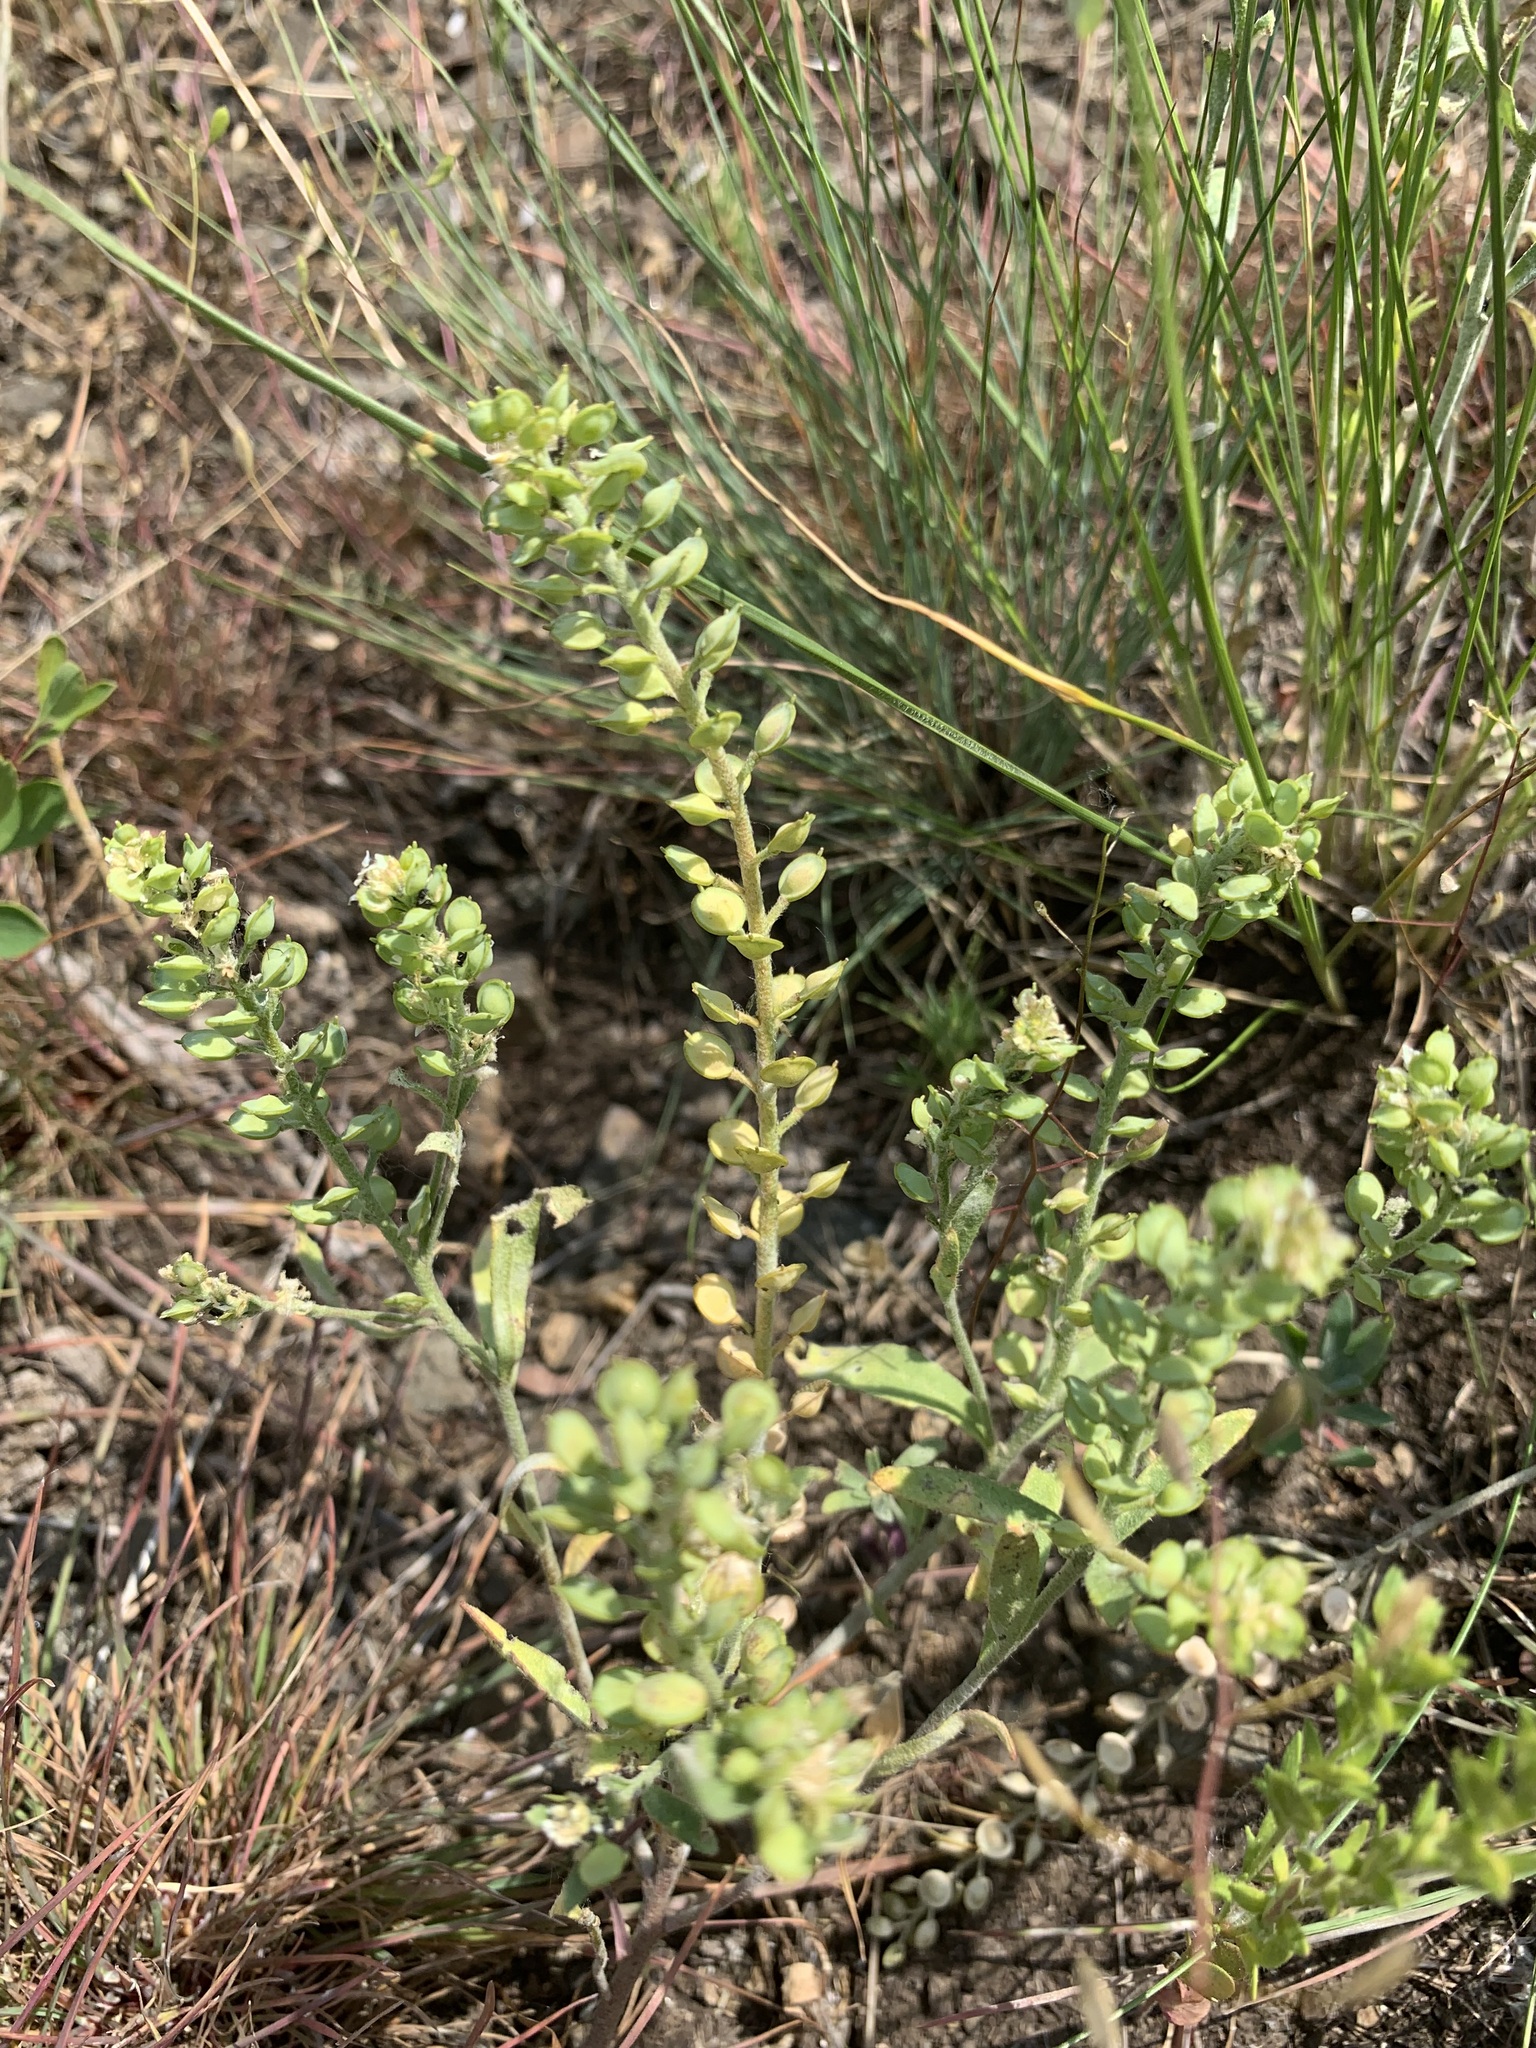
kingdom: Plantae
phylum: Tracheophyta
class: Magnoliopsida
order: Brassicales
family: Brassicaceae
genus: Alyssum
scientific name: Alyssum turkestanicum
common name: Desert alyssum
